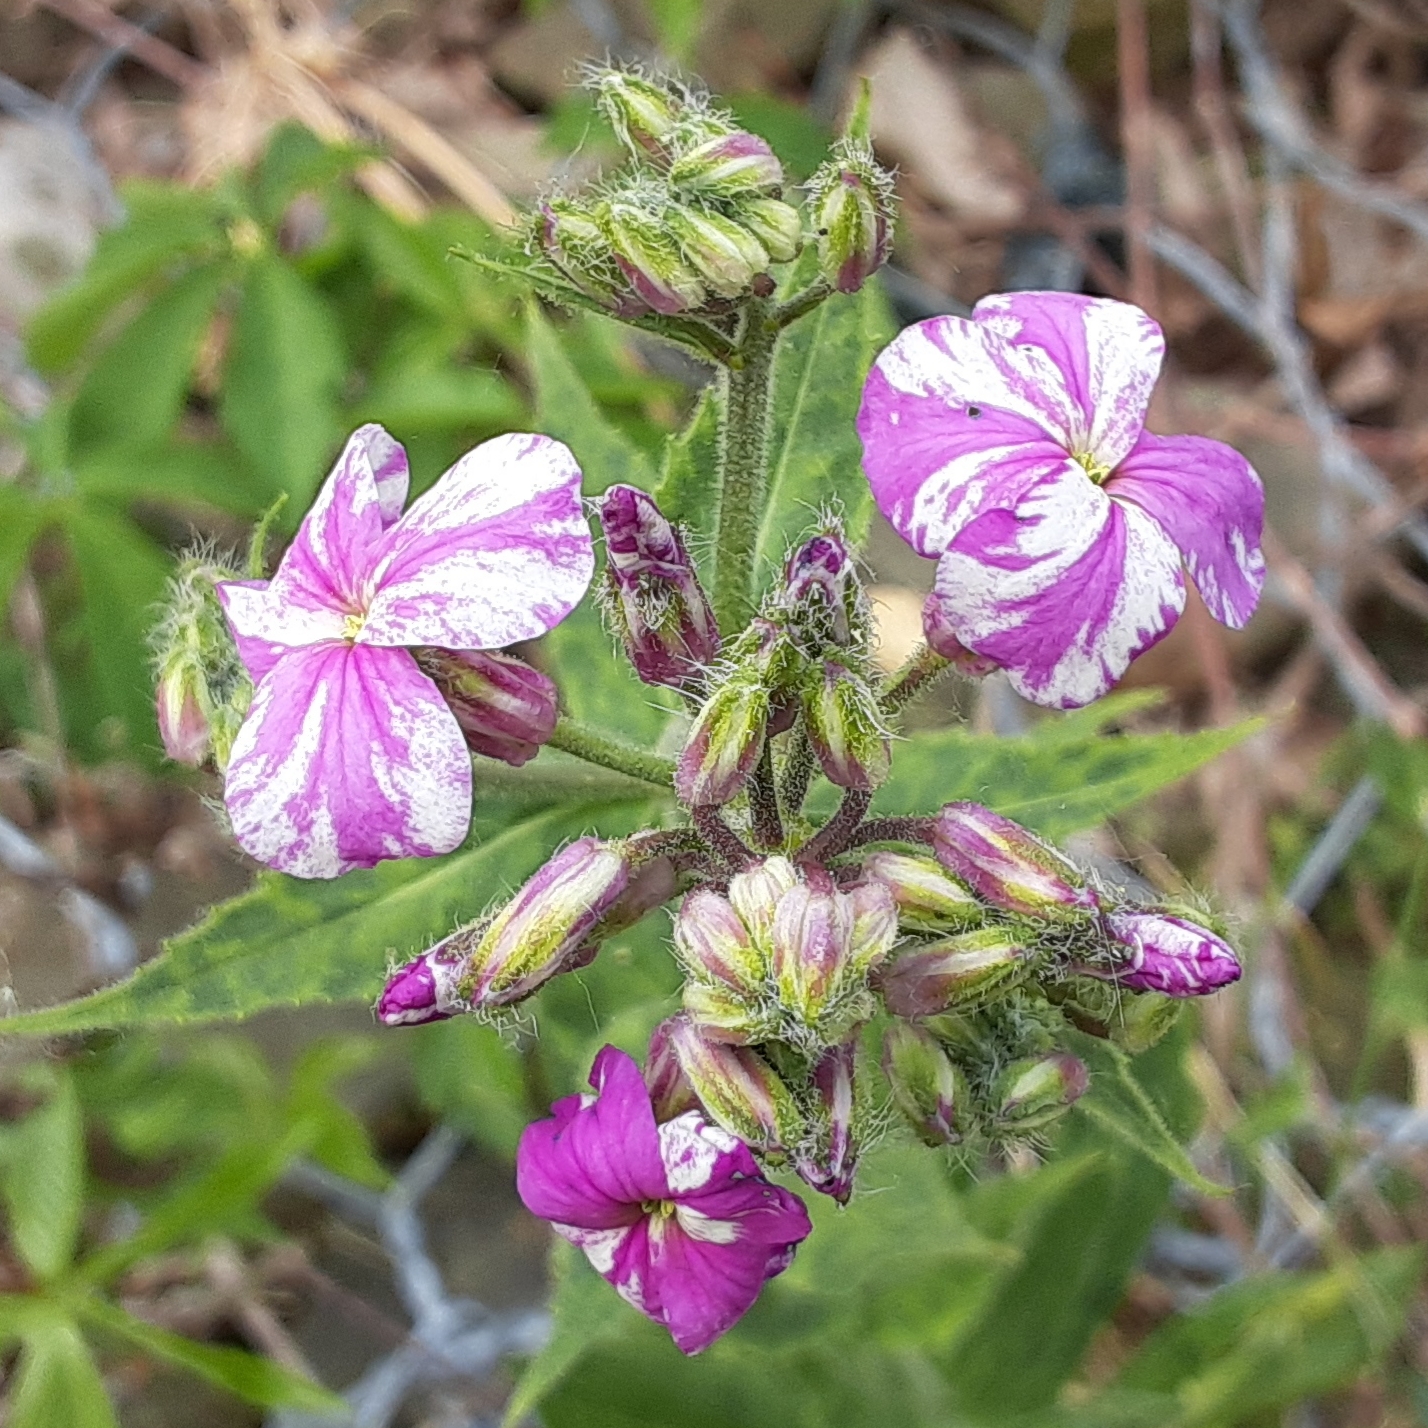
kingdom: Plantae
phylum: Tracheophyta
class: Magnoliopsida
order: Brassicales
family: Brassicaceae
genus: Hesperis
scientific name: Hesperis matronalis
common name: Dame's-violet
